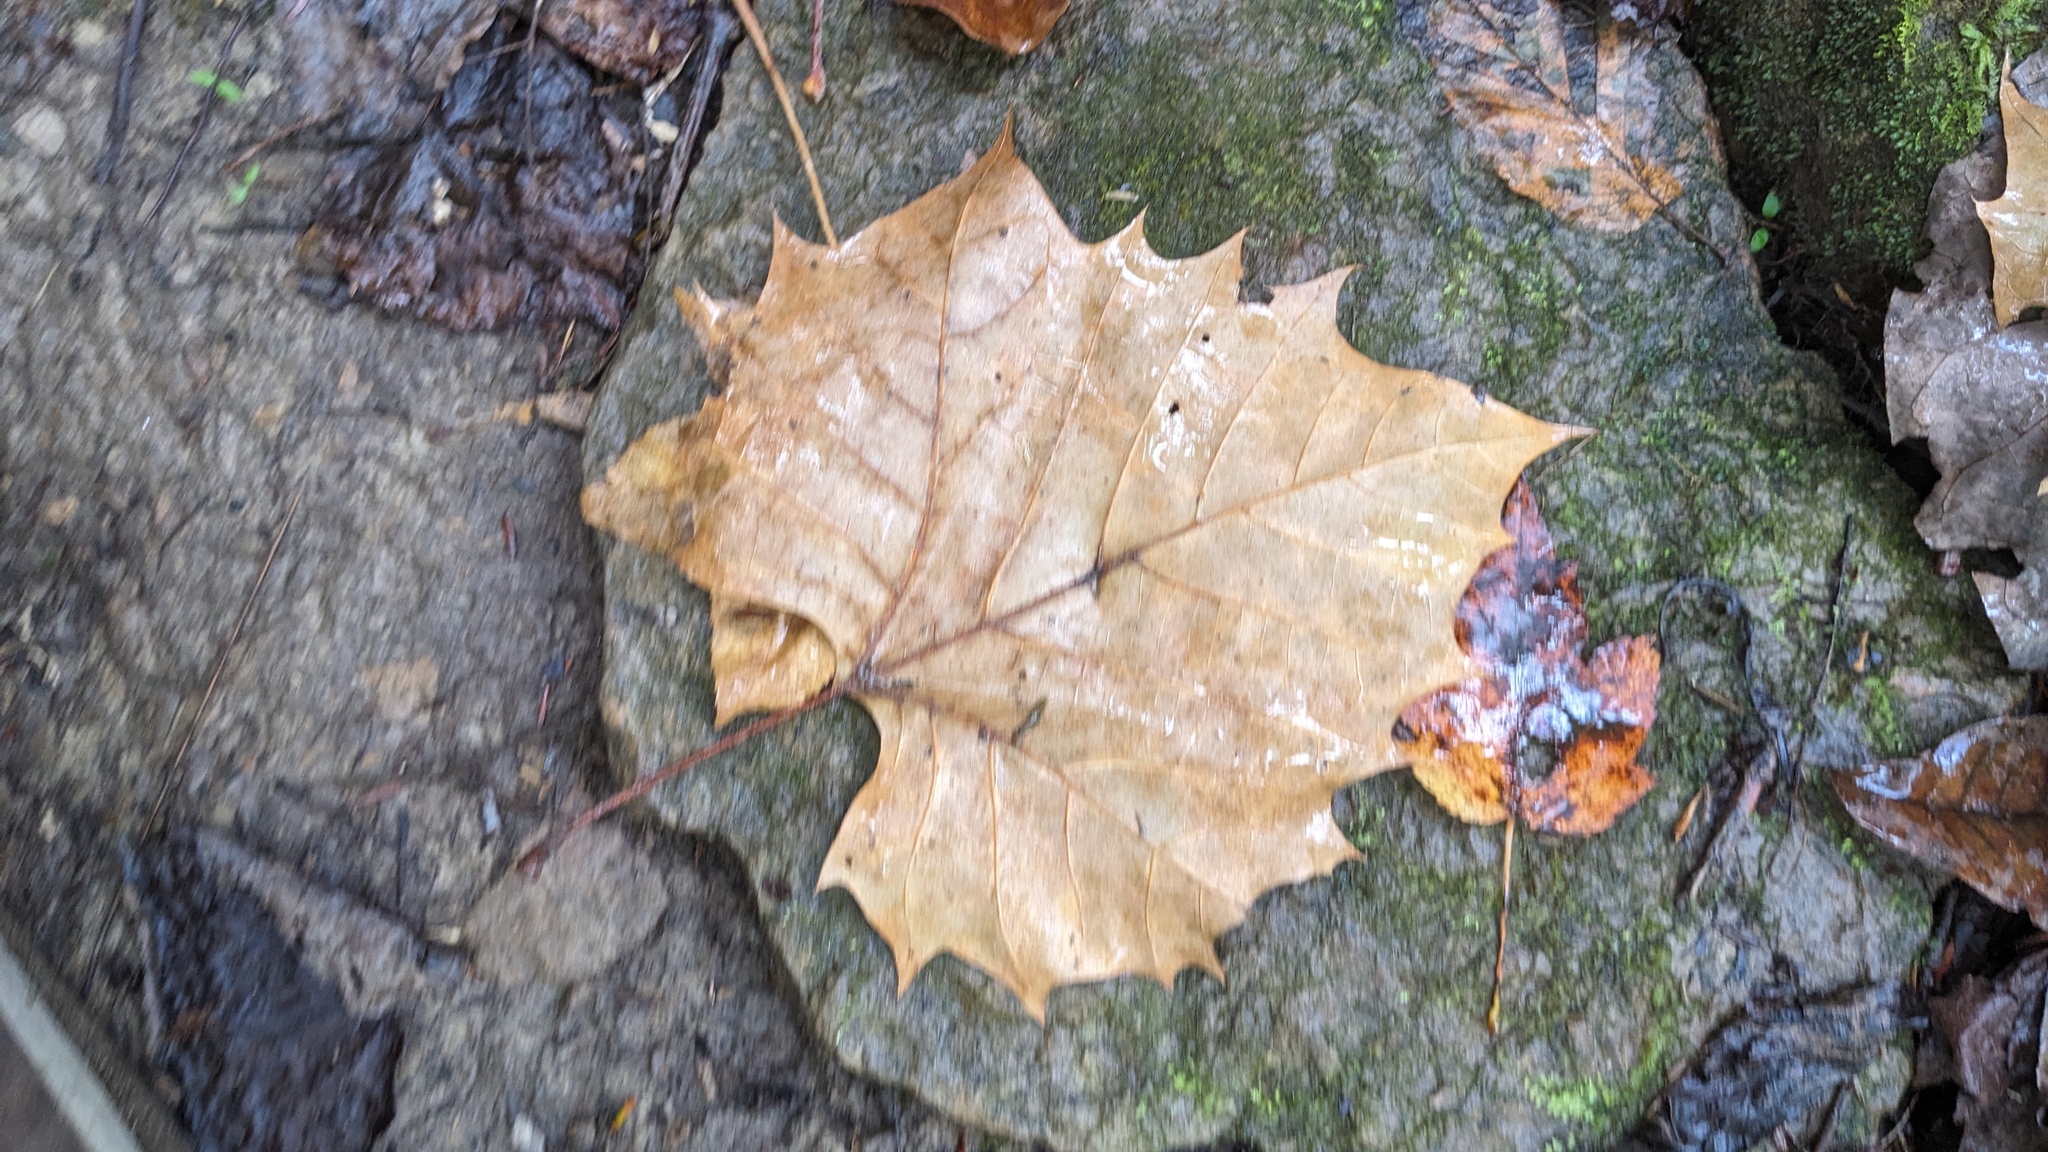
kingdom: Plantae
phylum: Tracheophyta
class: Magnoliopsida
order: Proteales
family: Platanaceae
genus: Platanus
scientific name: Platanus occidentalis
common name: American sycamore
